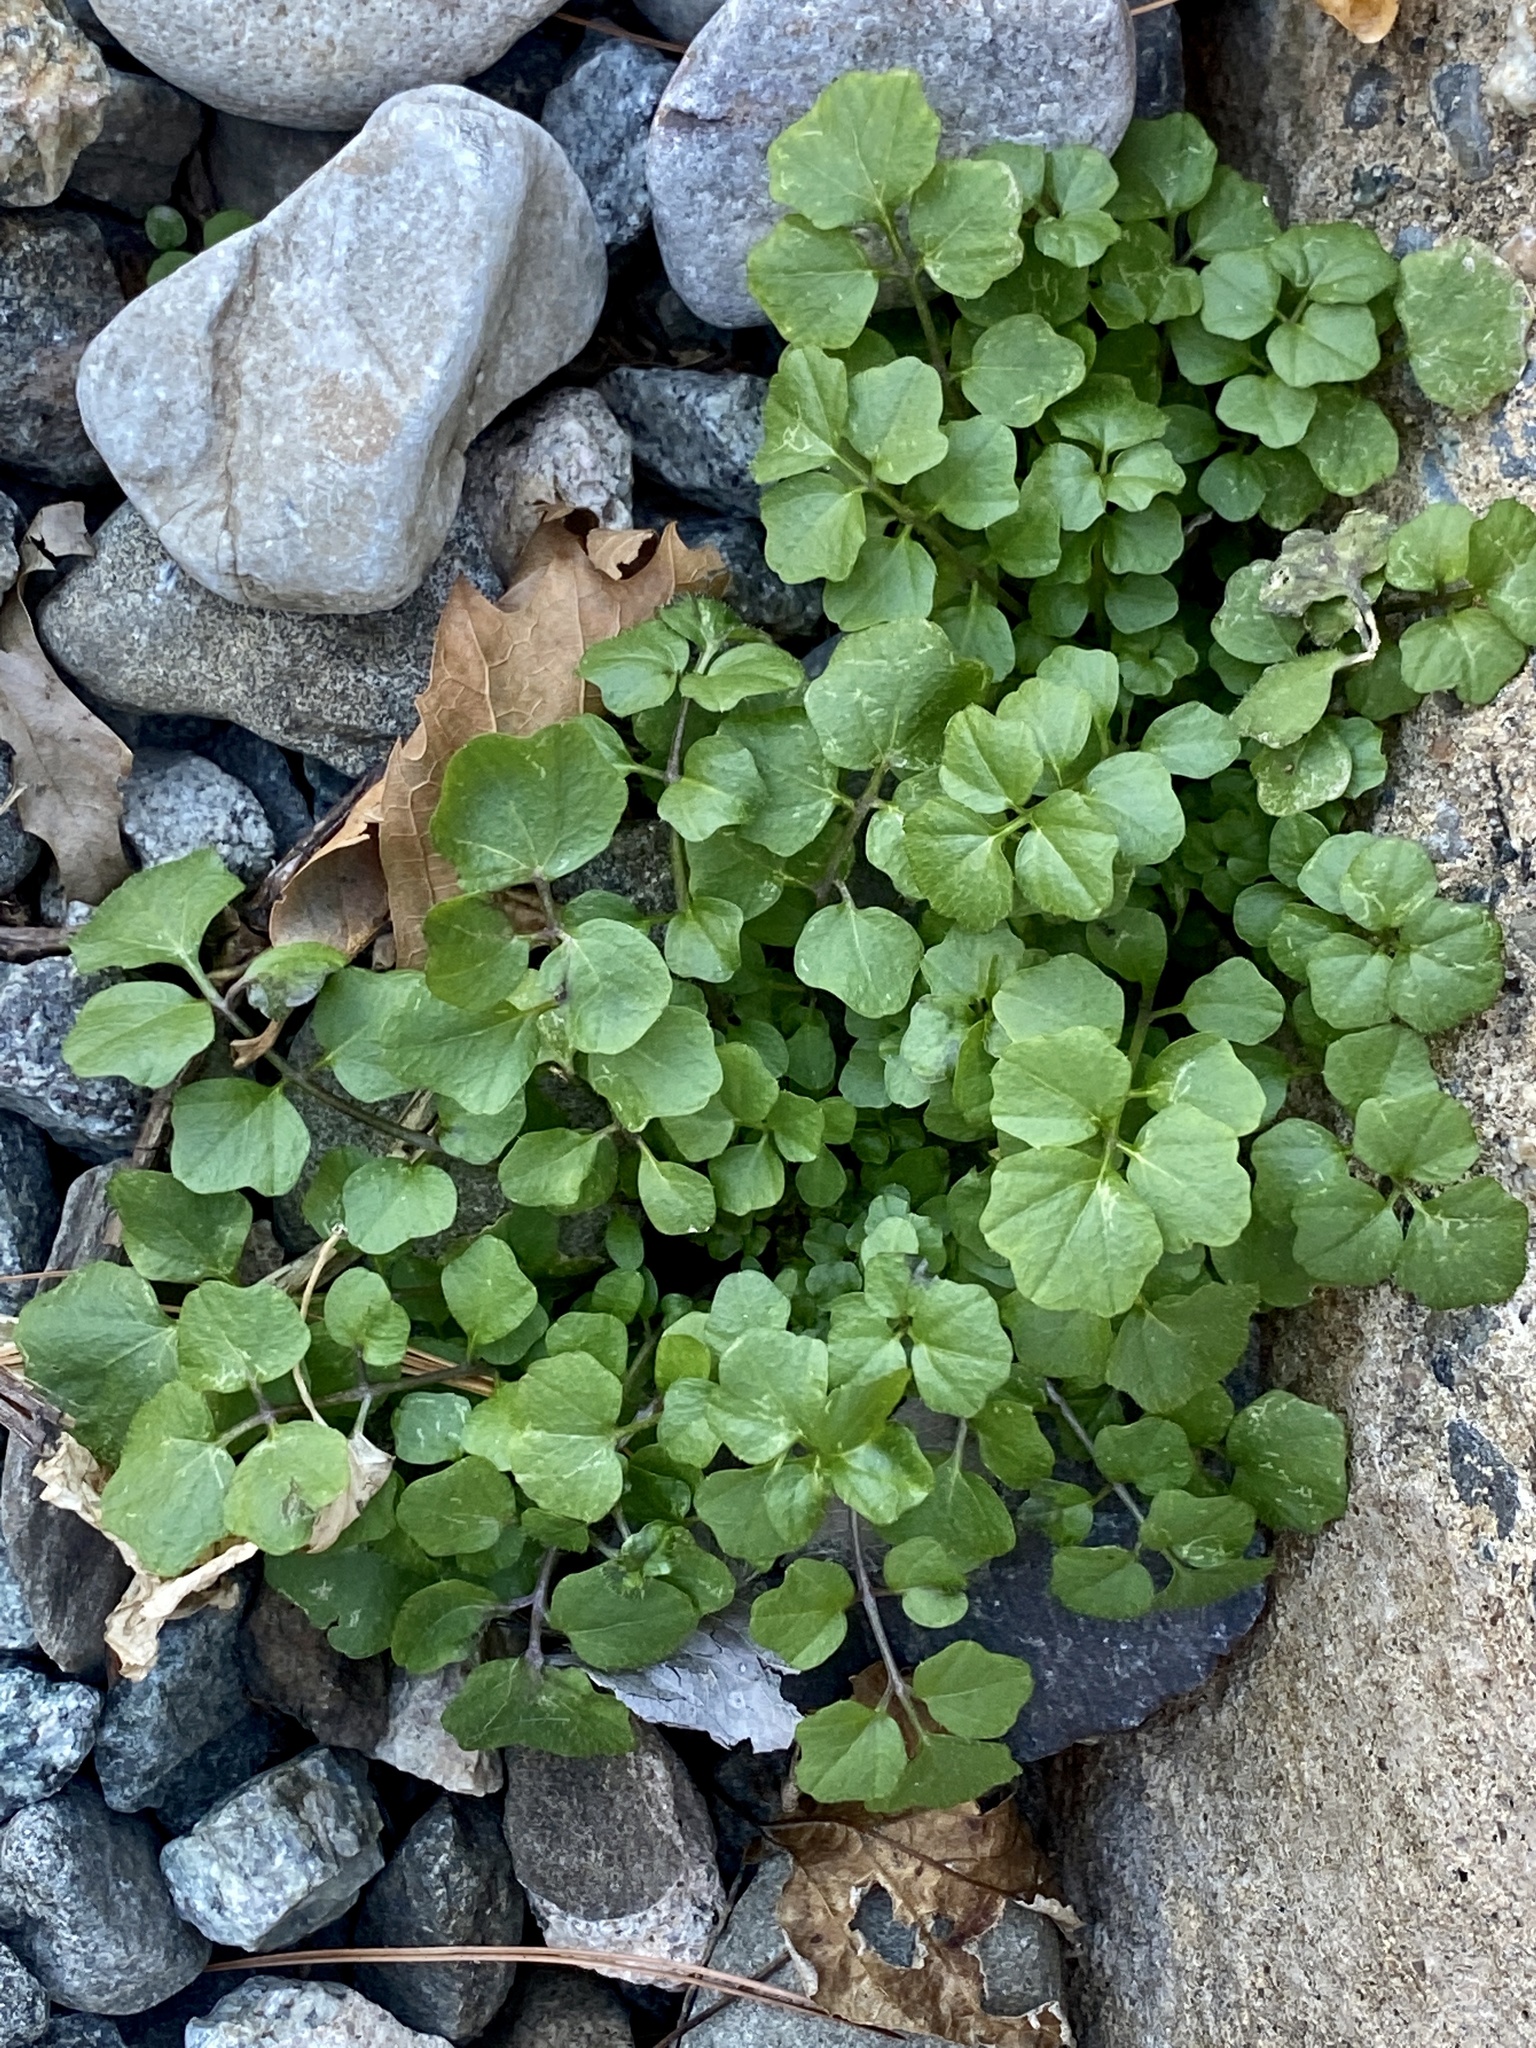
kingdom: Plantae
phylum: Tracheophyta
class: Magnoliopsida
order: Brassicales
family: Brassicaceae
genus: Cardamine
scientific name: Cardamine hirsuta
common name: Hairy bittercress
